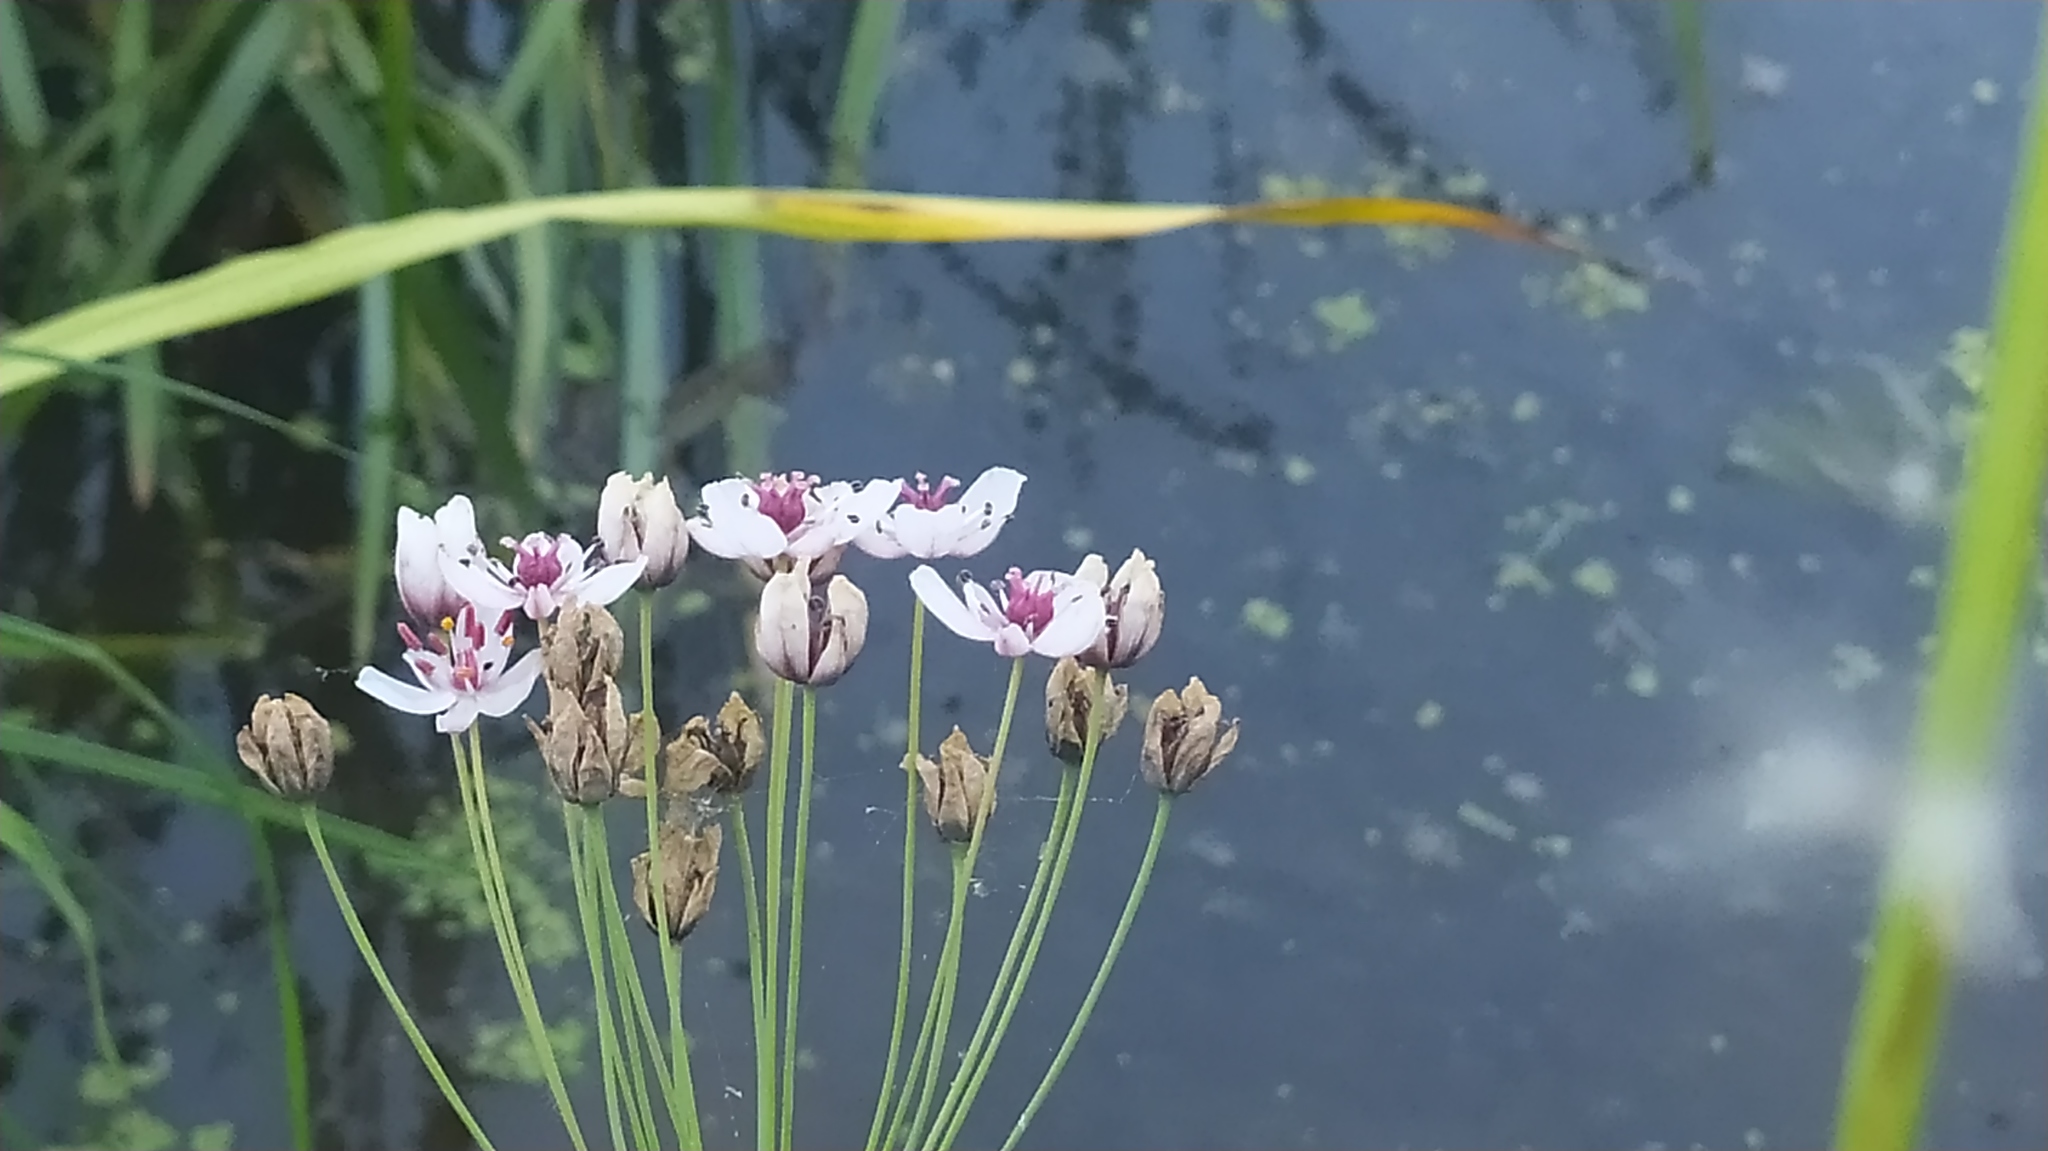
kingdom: Plantae
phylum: Tracheophyta
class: Liliopsida
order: Alismatales
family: Butomaceae
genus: Butomus
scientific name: Butomus umbellatus
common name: Flowering-rush
